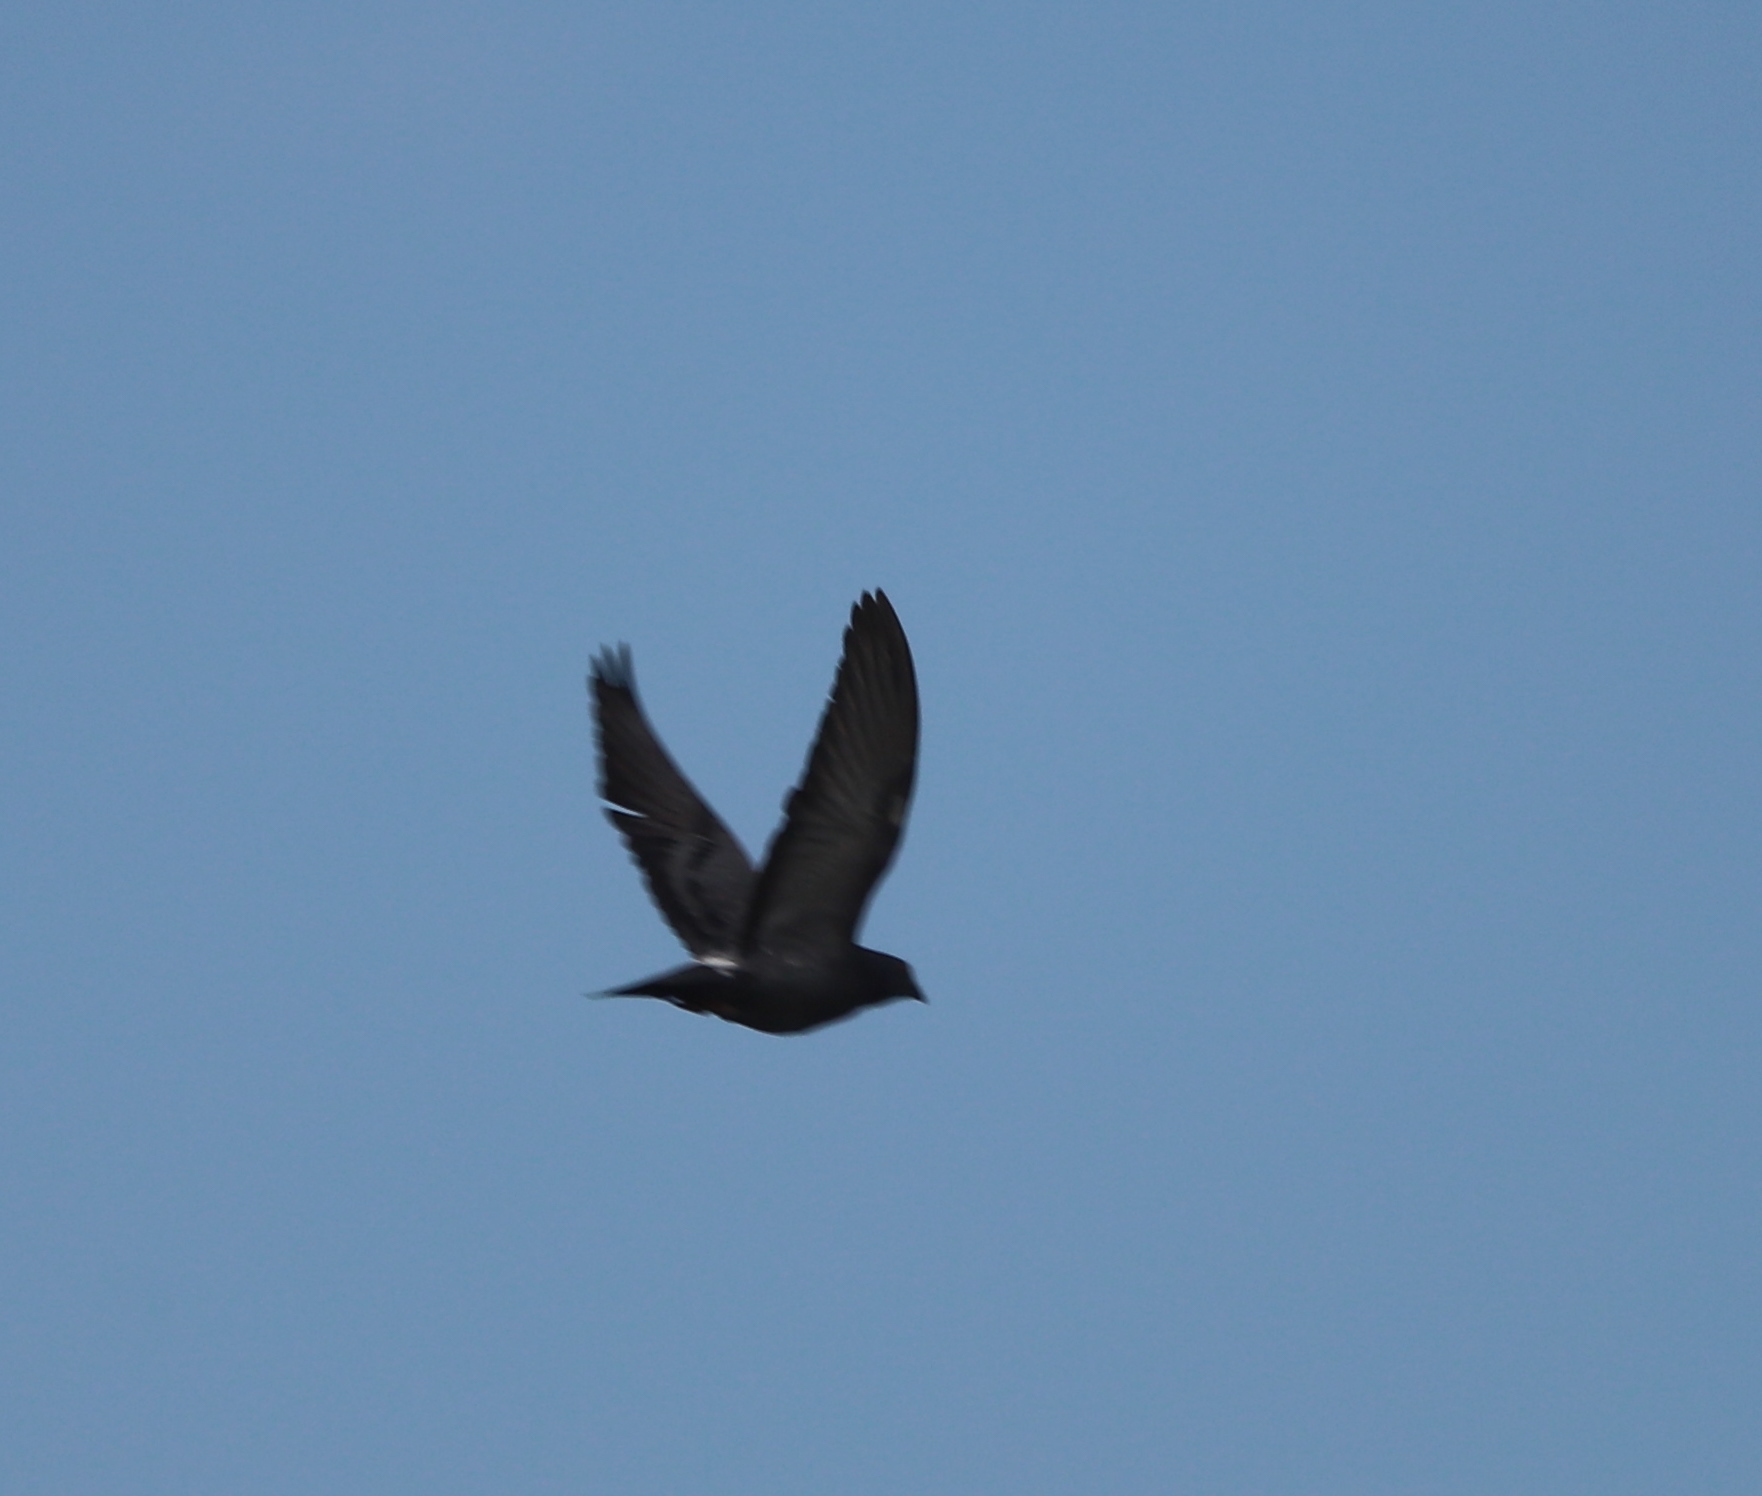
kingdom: Animalia
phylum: Chordata
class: Aves
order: Columbiformes
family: Columbidae
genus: Columba
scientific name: Columba livia
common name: Rock pigeon
